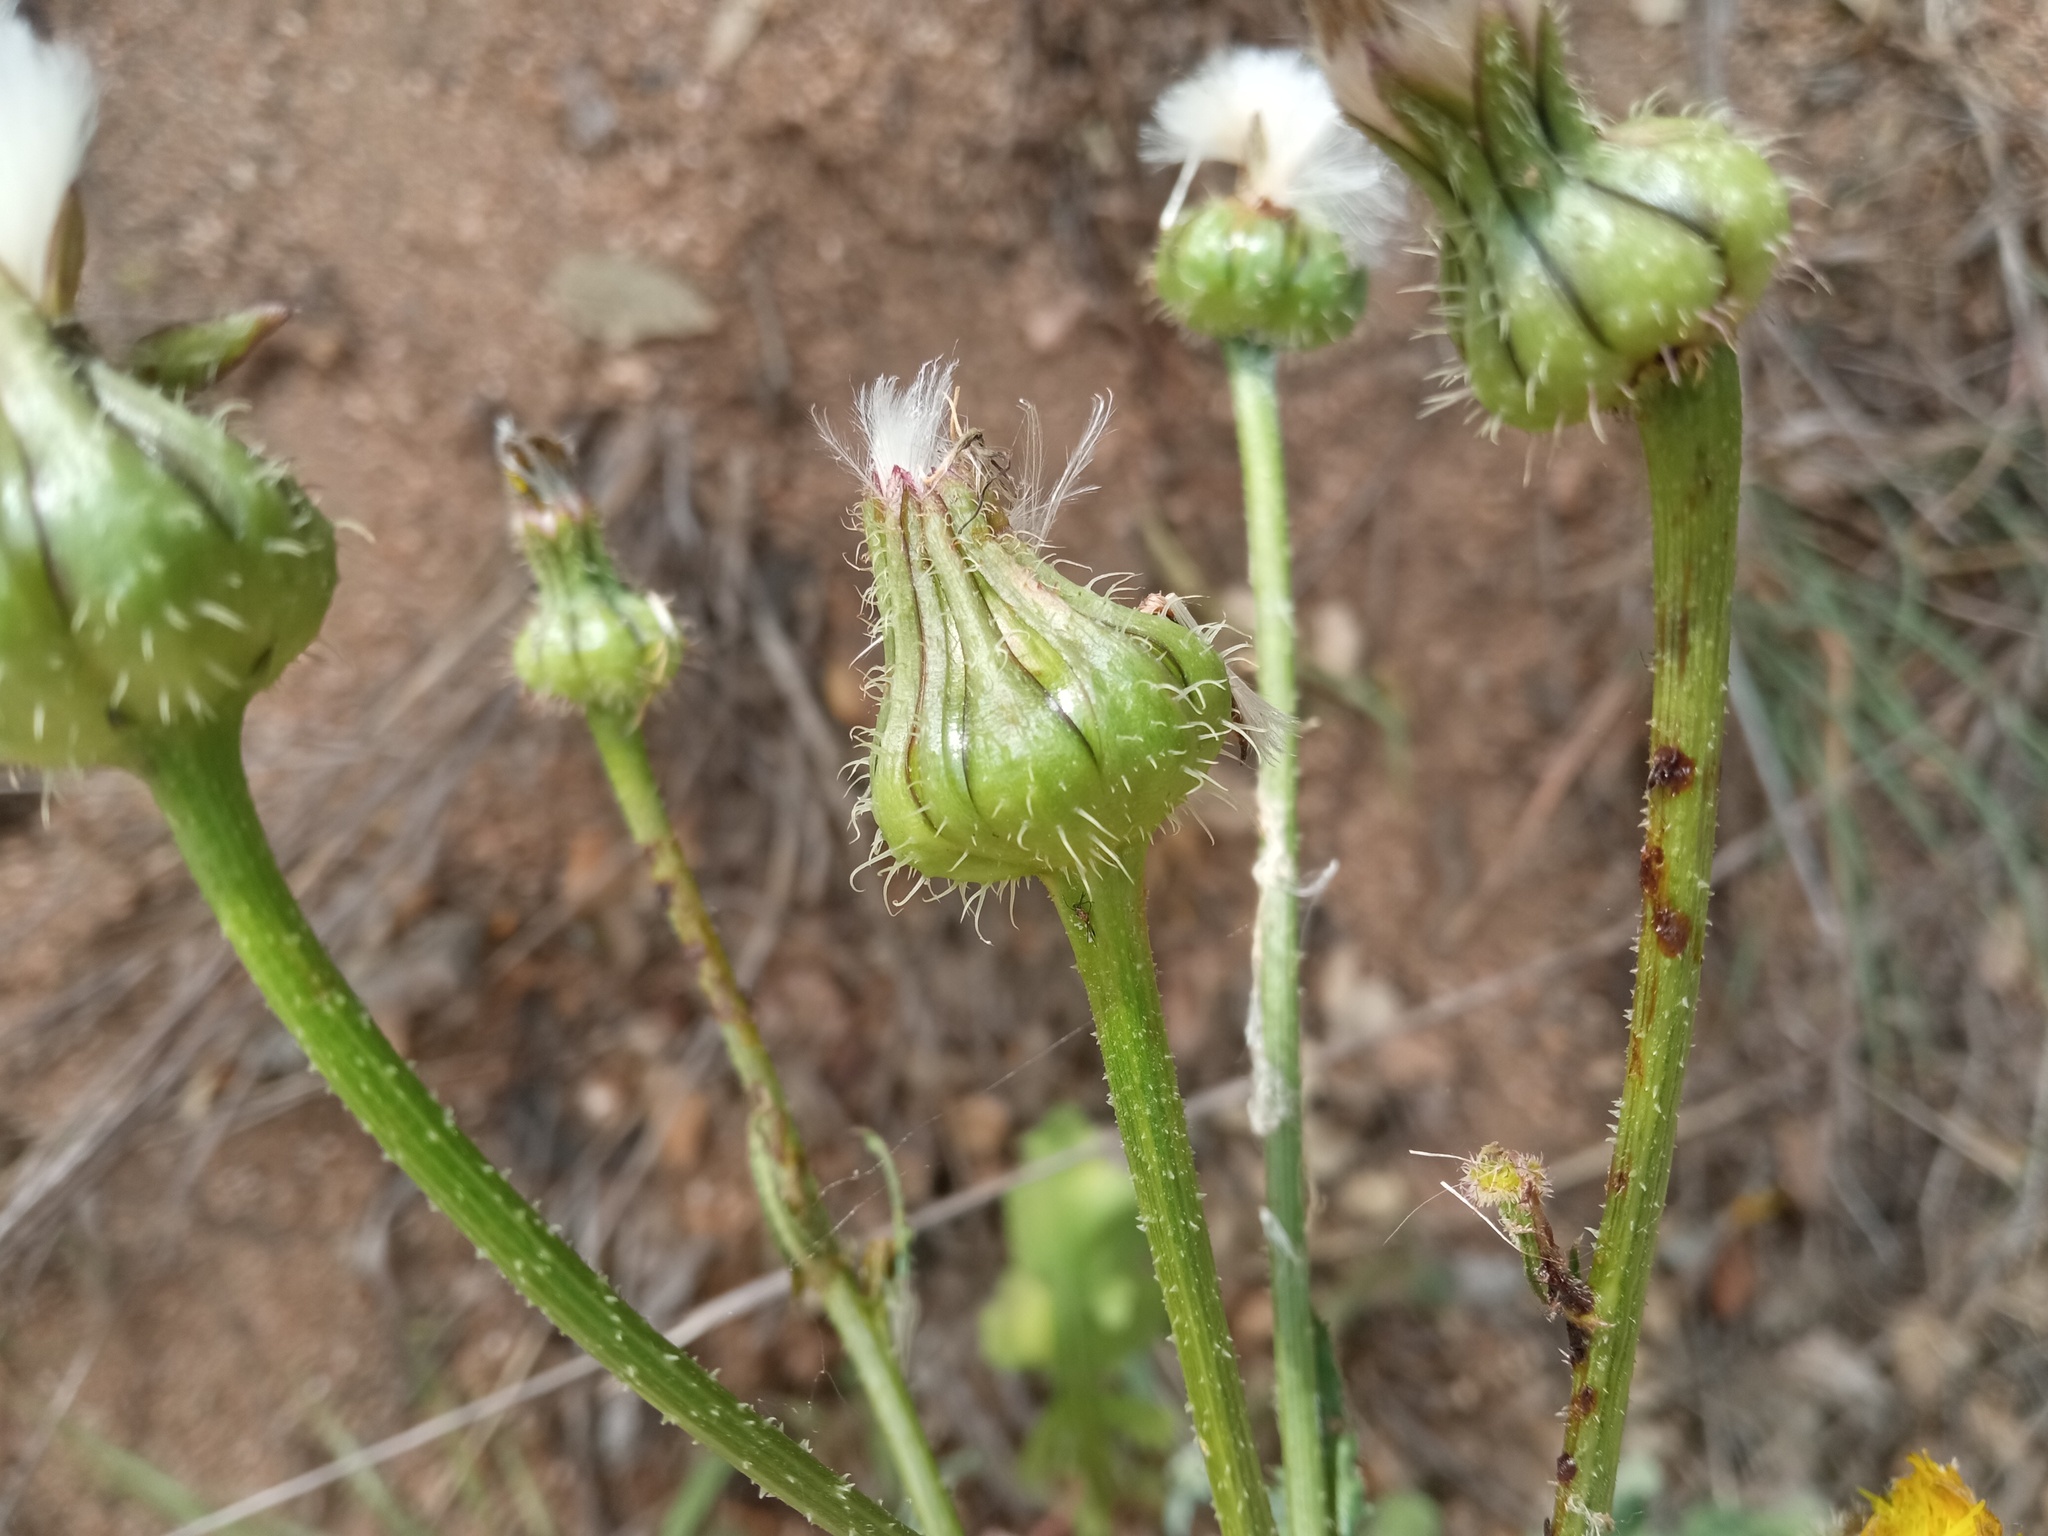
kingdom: Plantae
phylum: Tracheophyta
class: Magnoliopsida
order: Asterales
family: Asteraceae
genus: Urospermum
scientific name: Urospermum picroides
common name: False hawkbit
